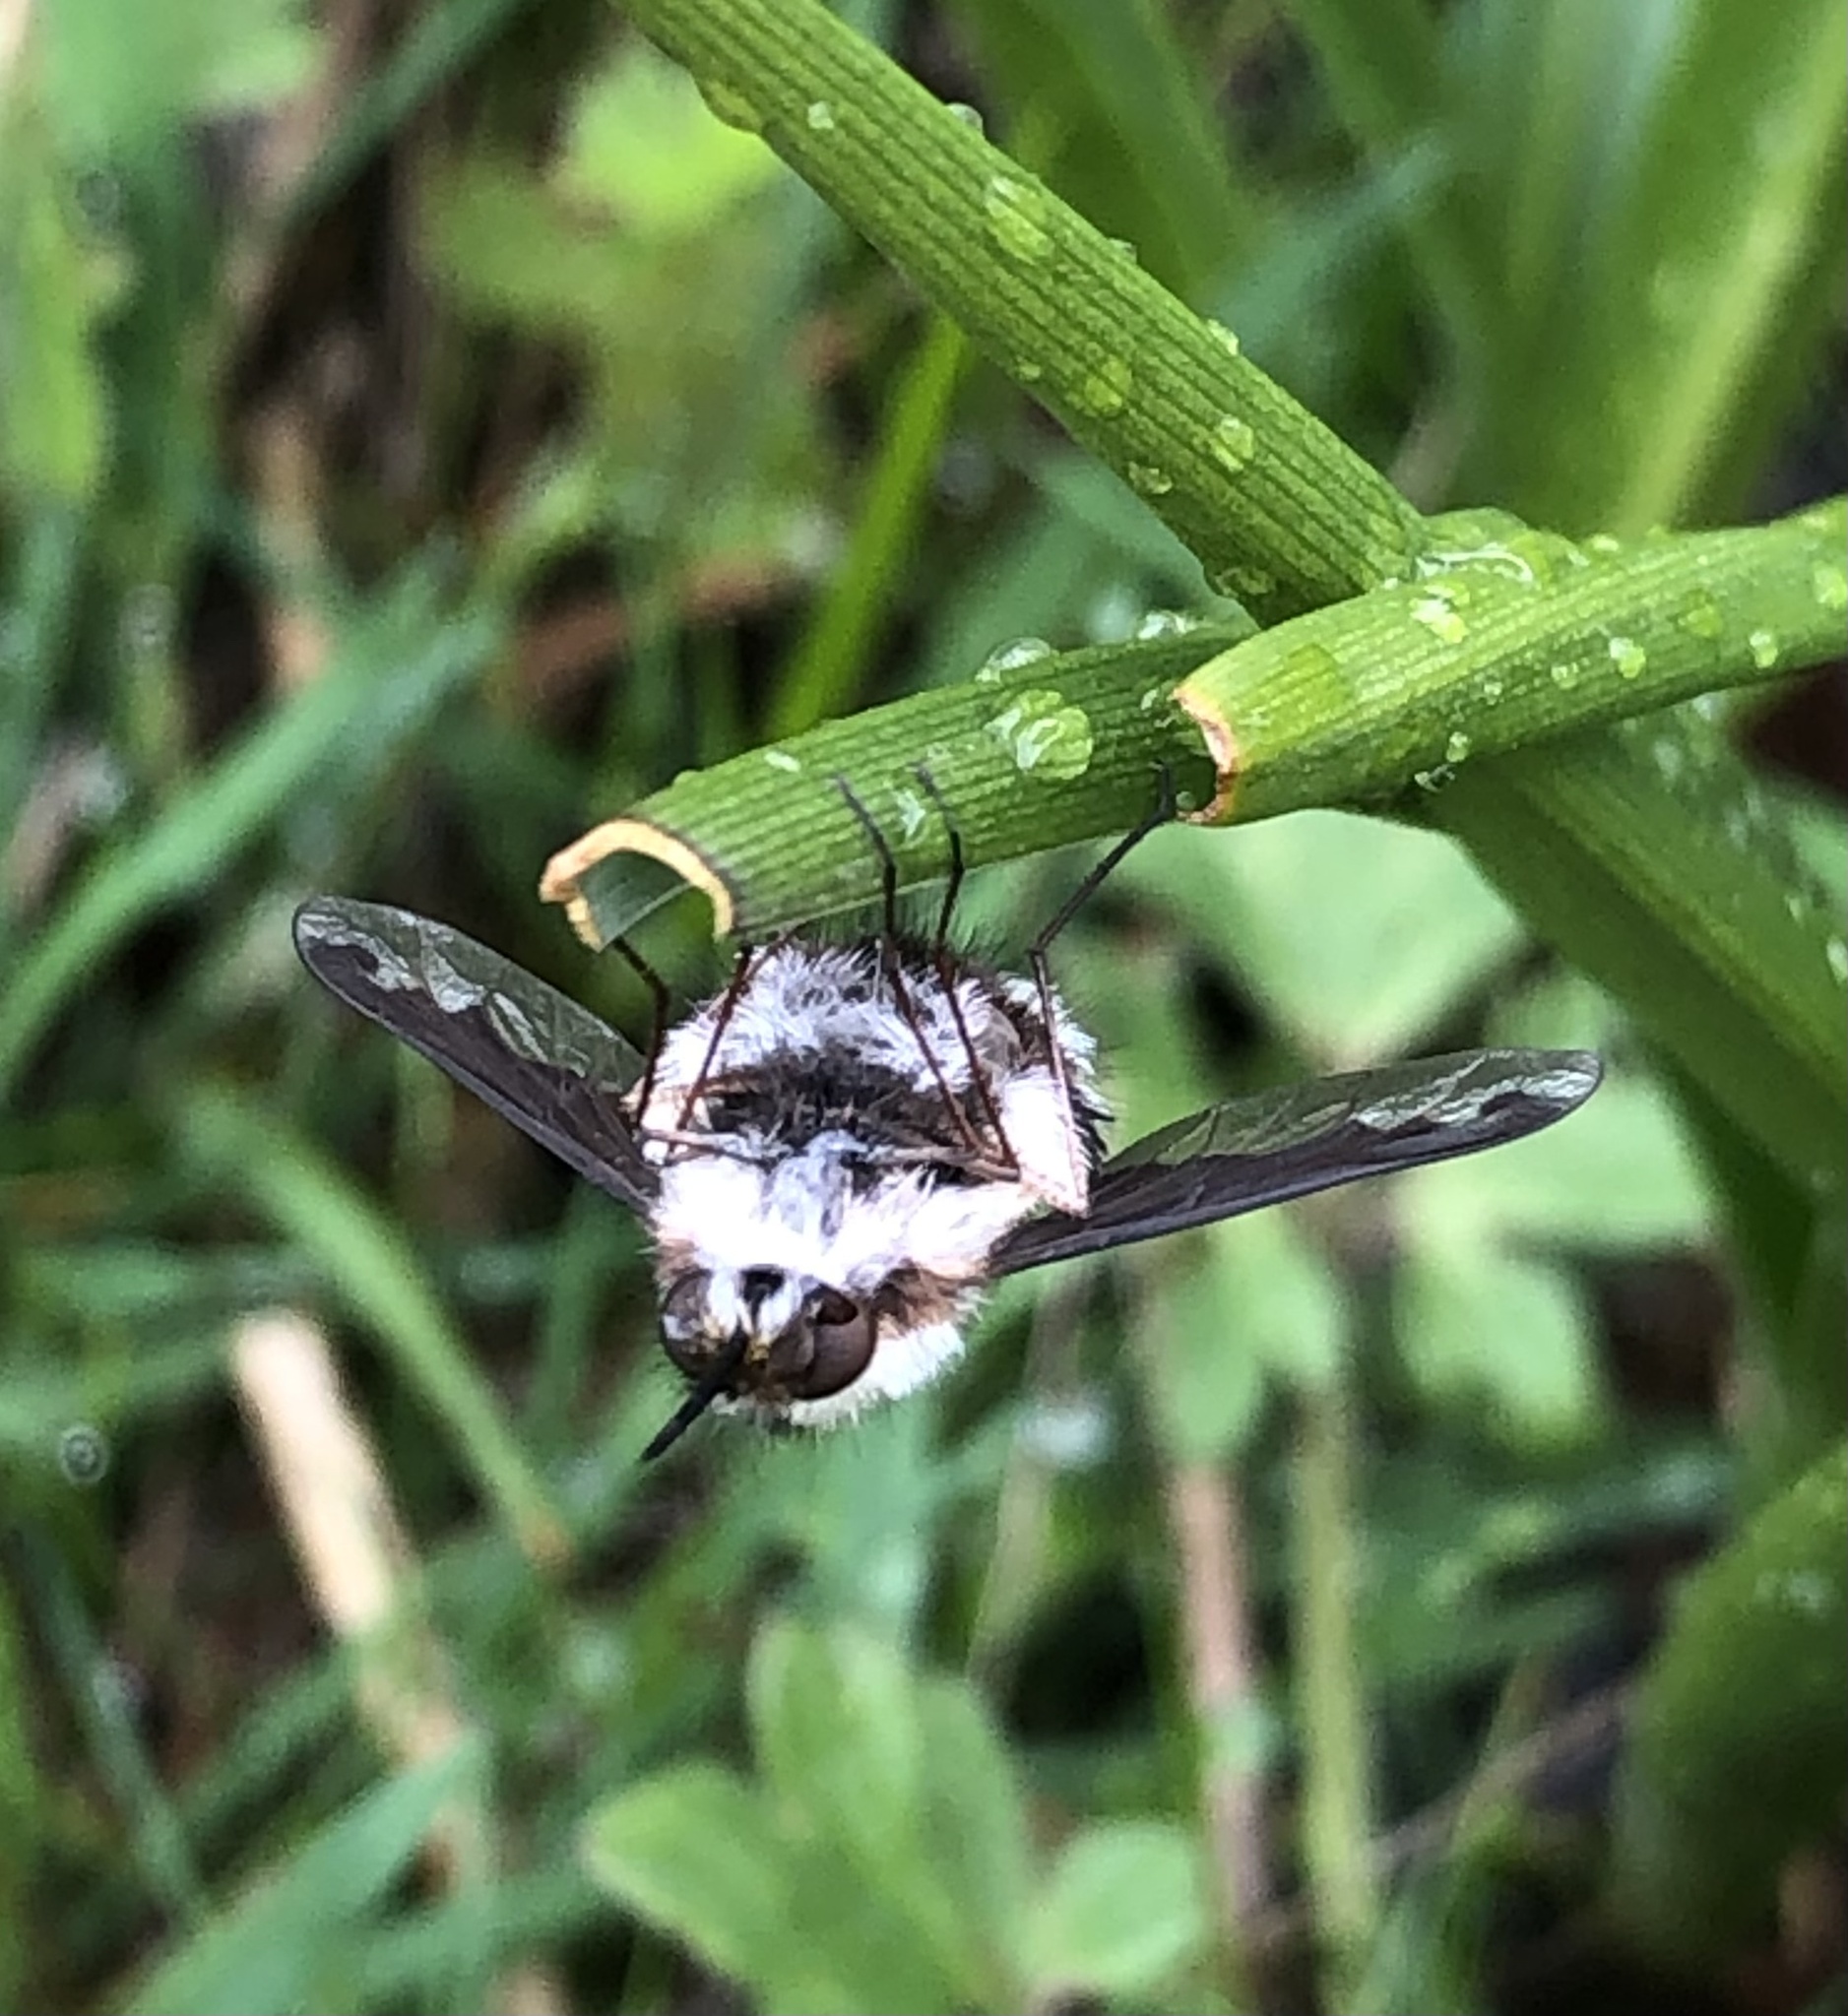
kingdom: Animalia
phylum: Arthropoda
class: Insecta
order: Diptera
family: Bombyliidae
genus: Bombylius
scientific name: Bombylius anthophilus
